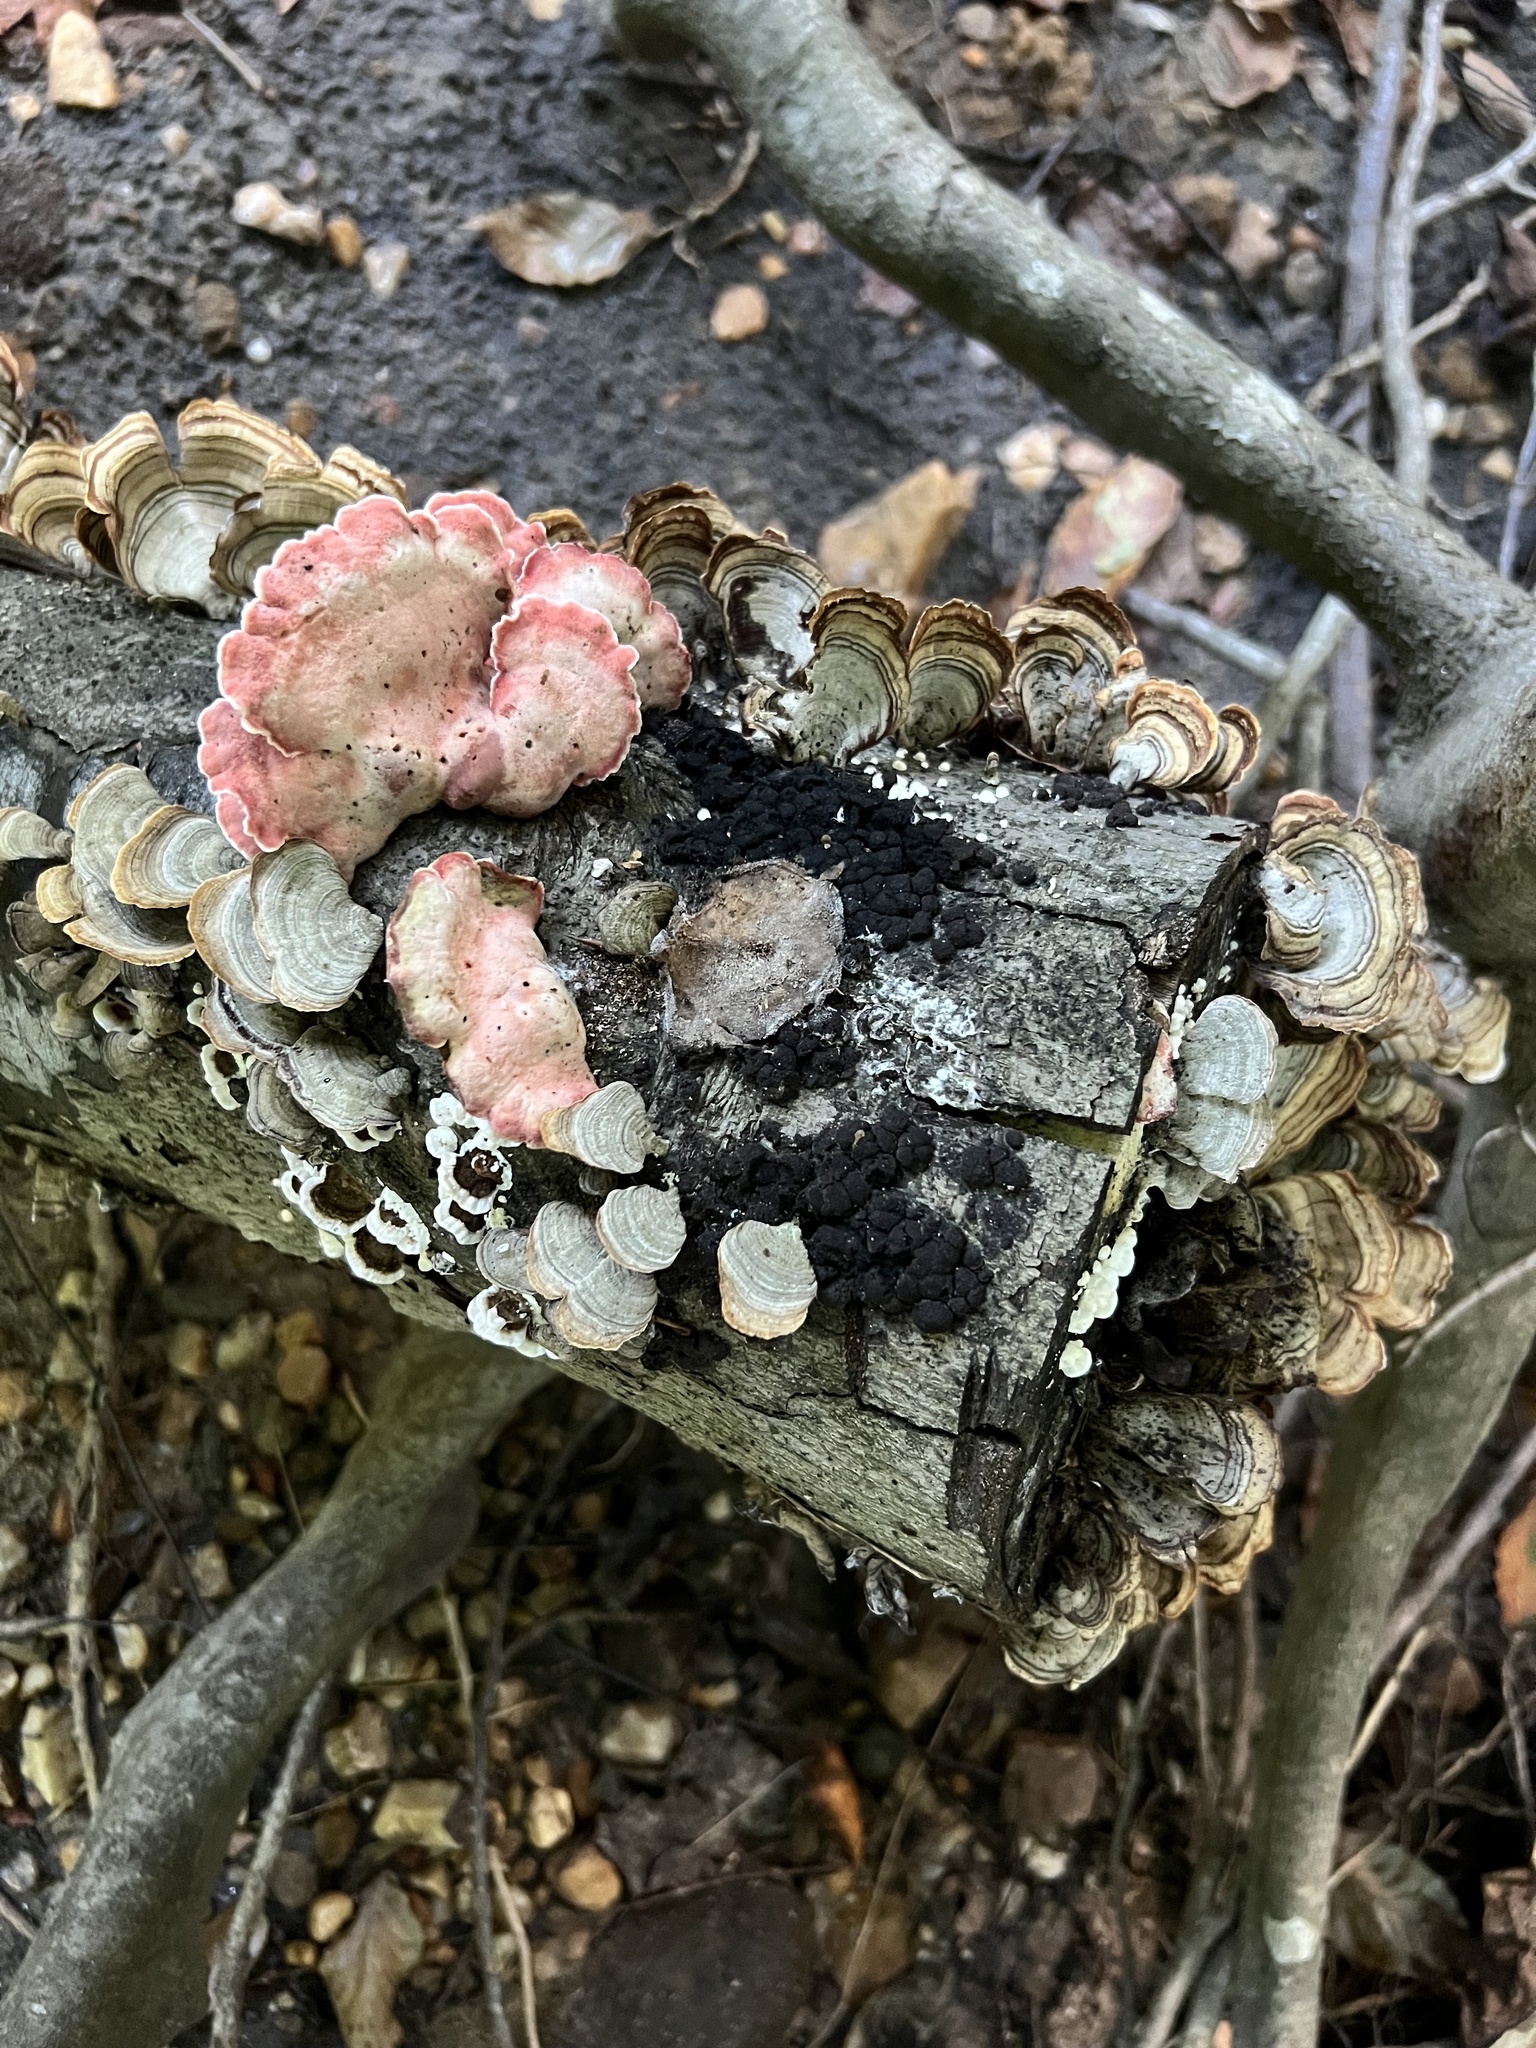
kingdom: Fungi
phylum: Basidiomycota
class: Agaricomycetes
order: Polyporales
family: Irpicaceae
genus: Byssomerulius
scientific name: Byssomerulius incarnatus
